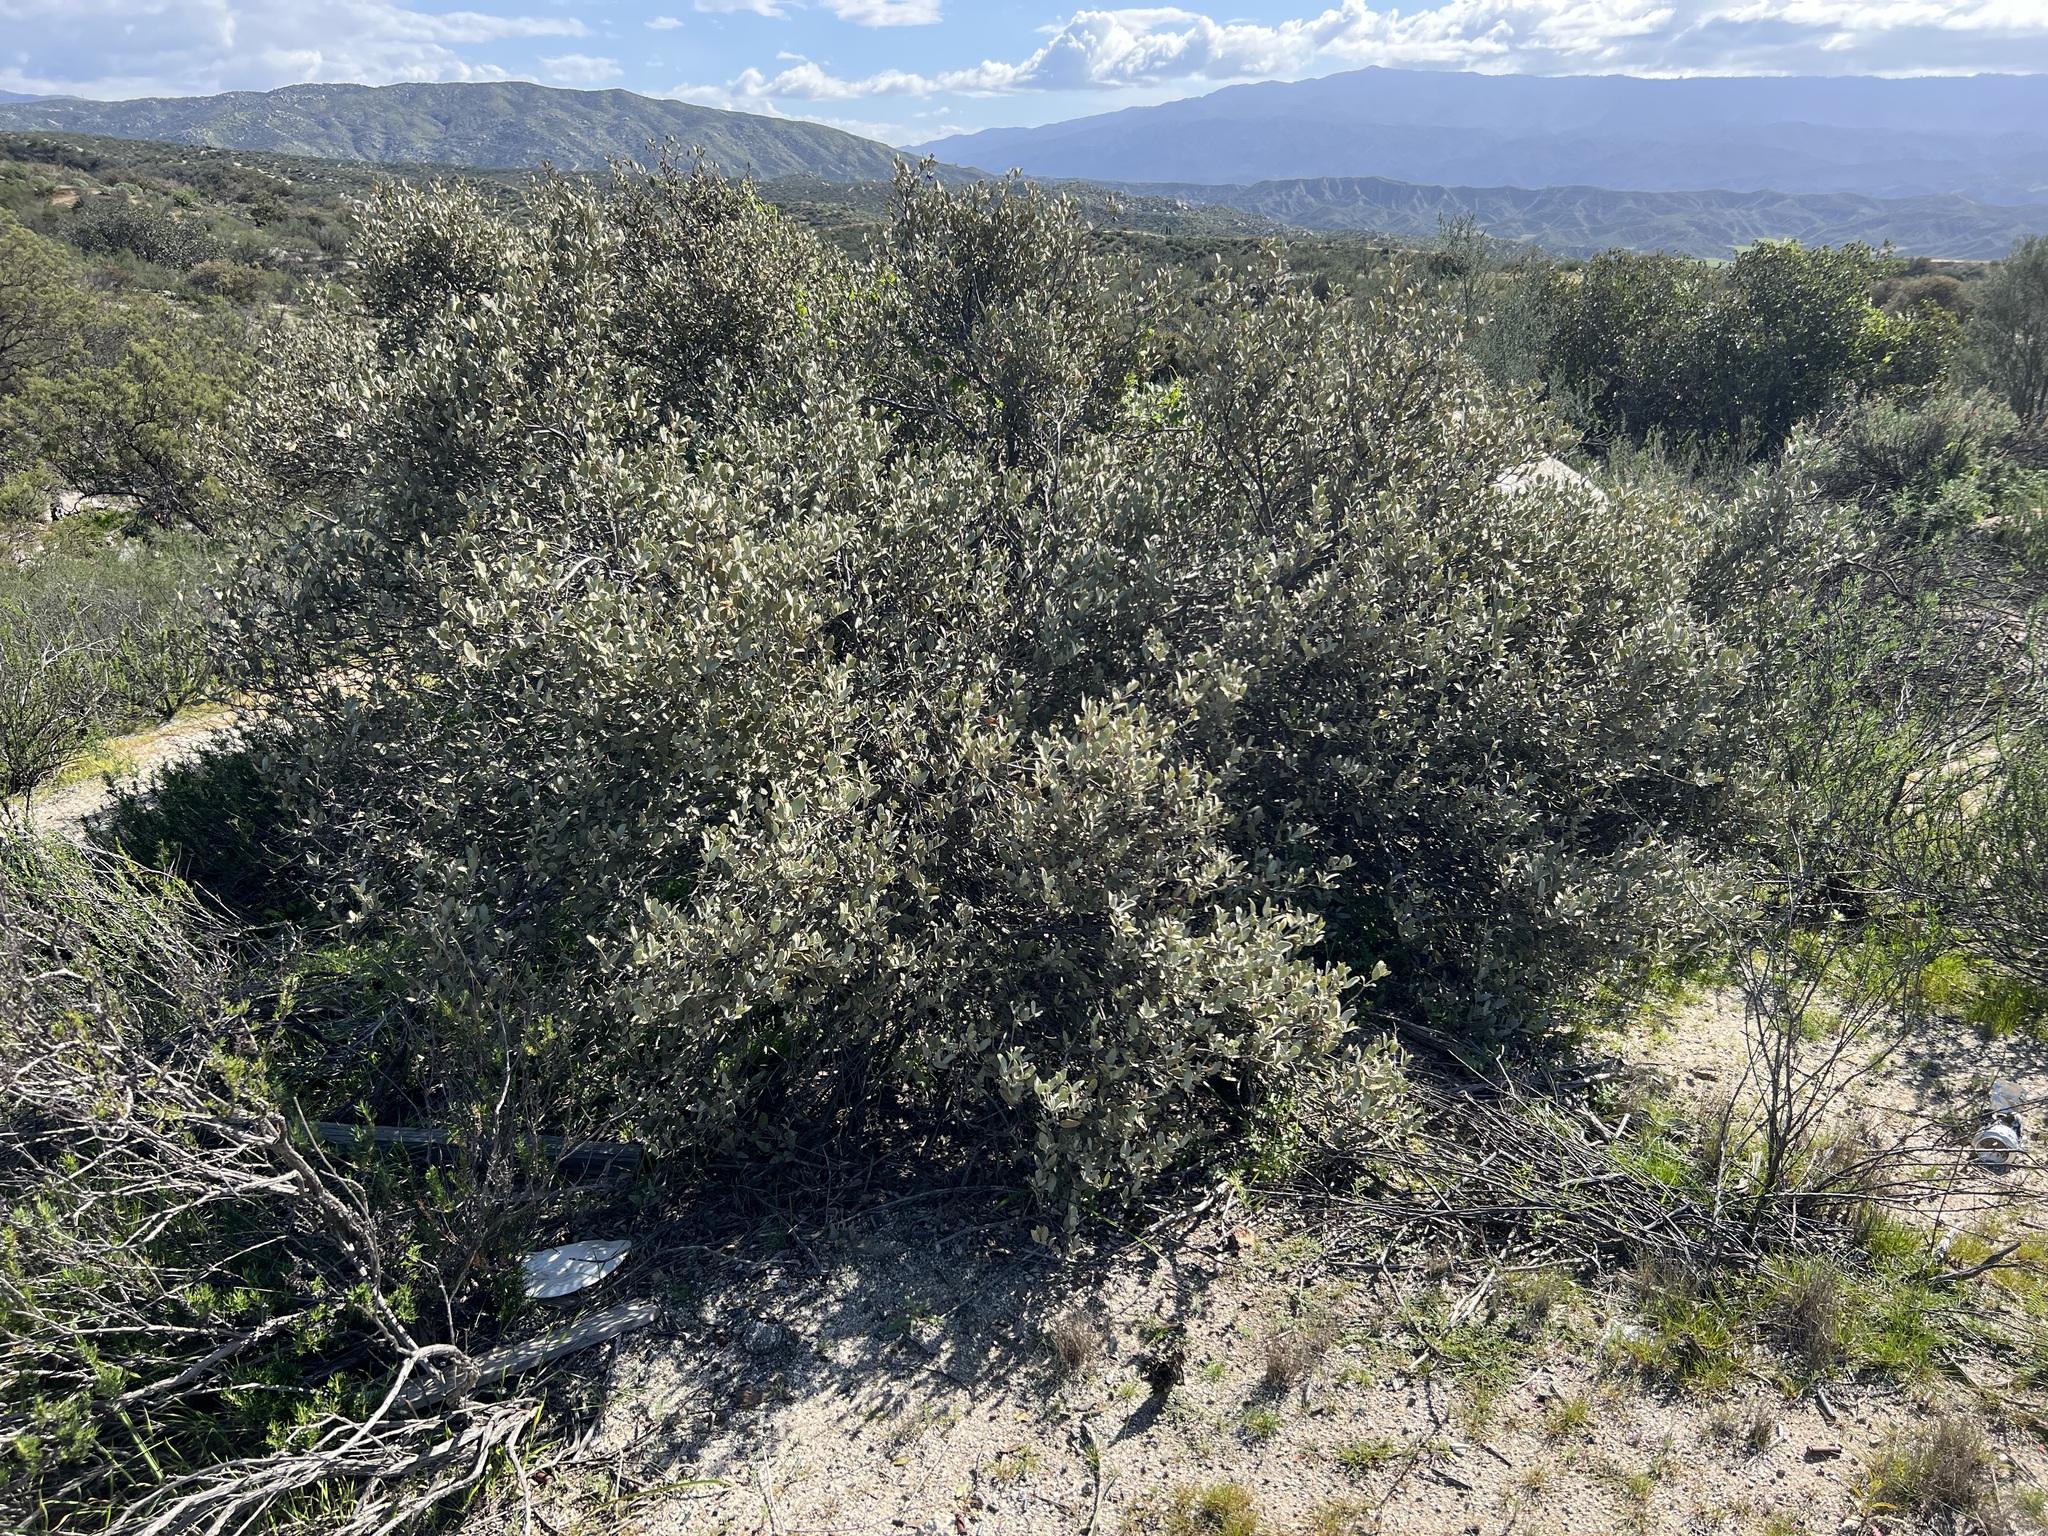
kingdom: Plantae
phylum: Tracheophyta
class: Magnoliopsida
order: Caryophyllales
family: Simmondsiaceae
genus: Simmondsia
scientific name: Simmondsia chinensis
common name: Jojoba
